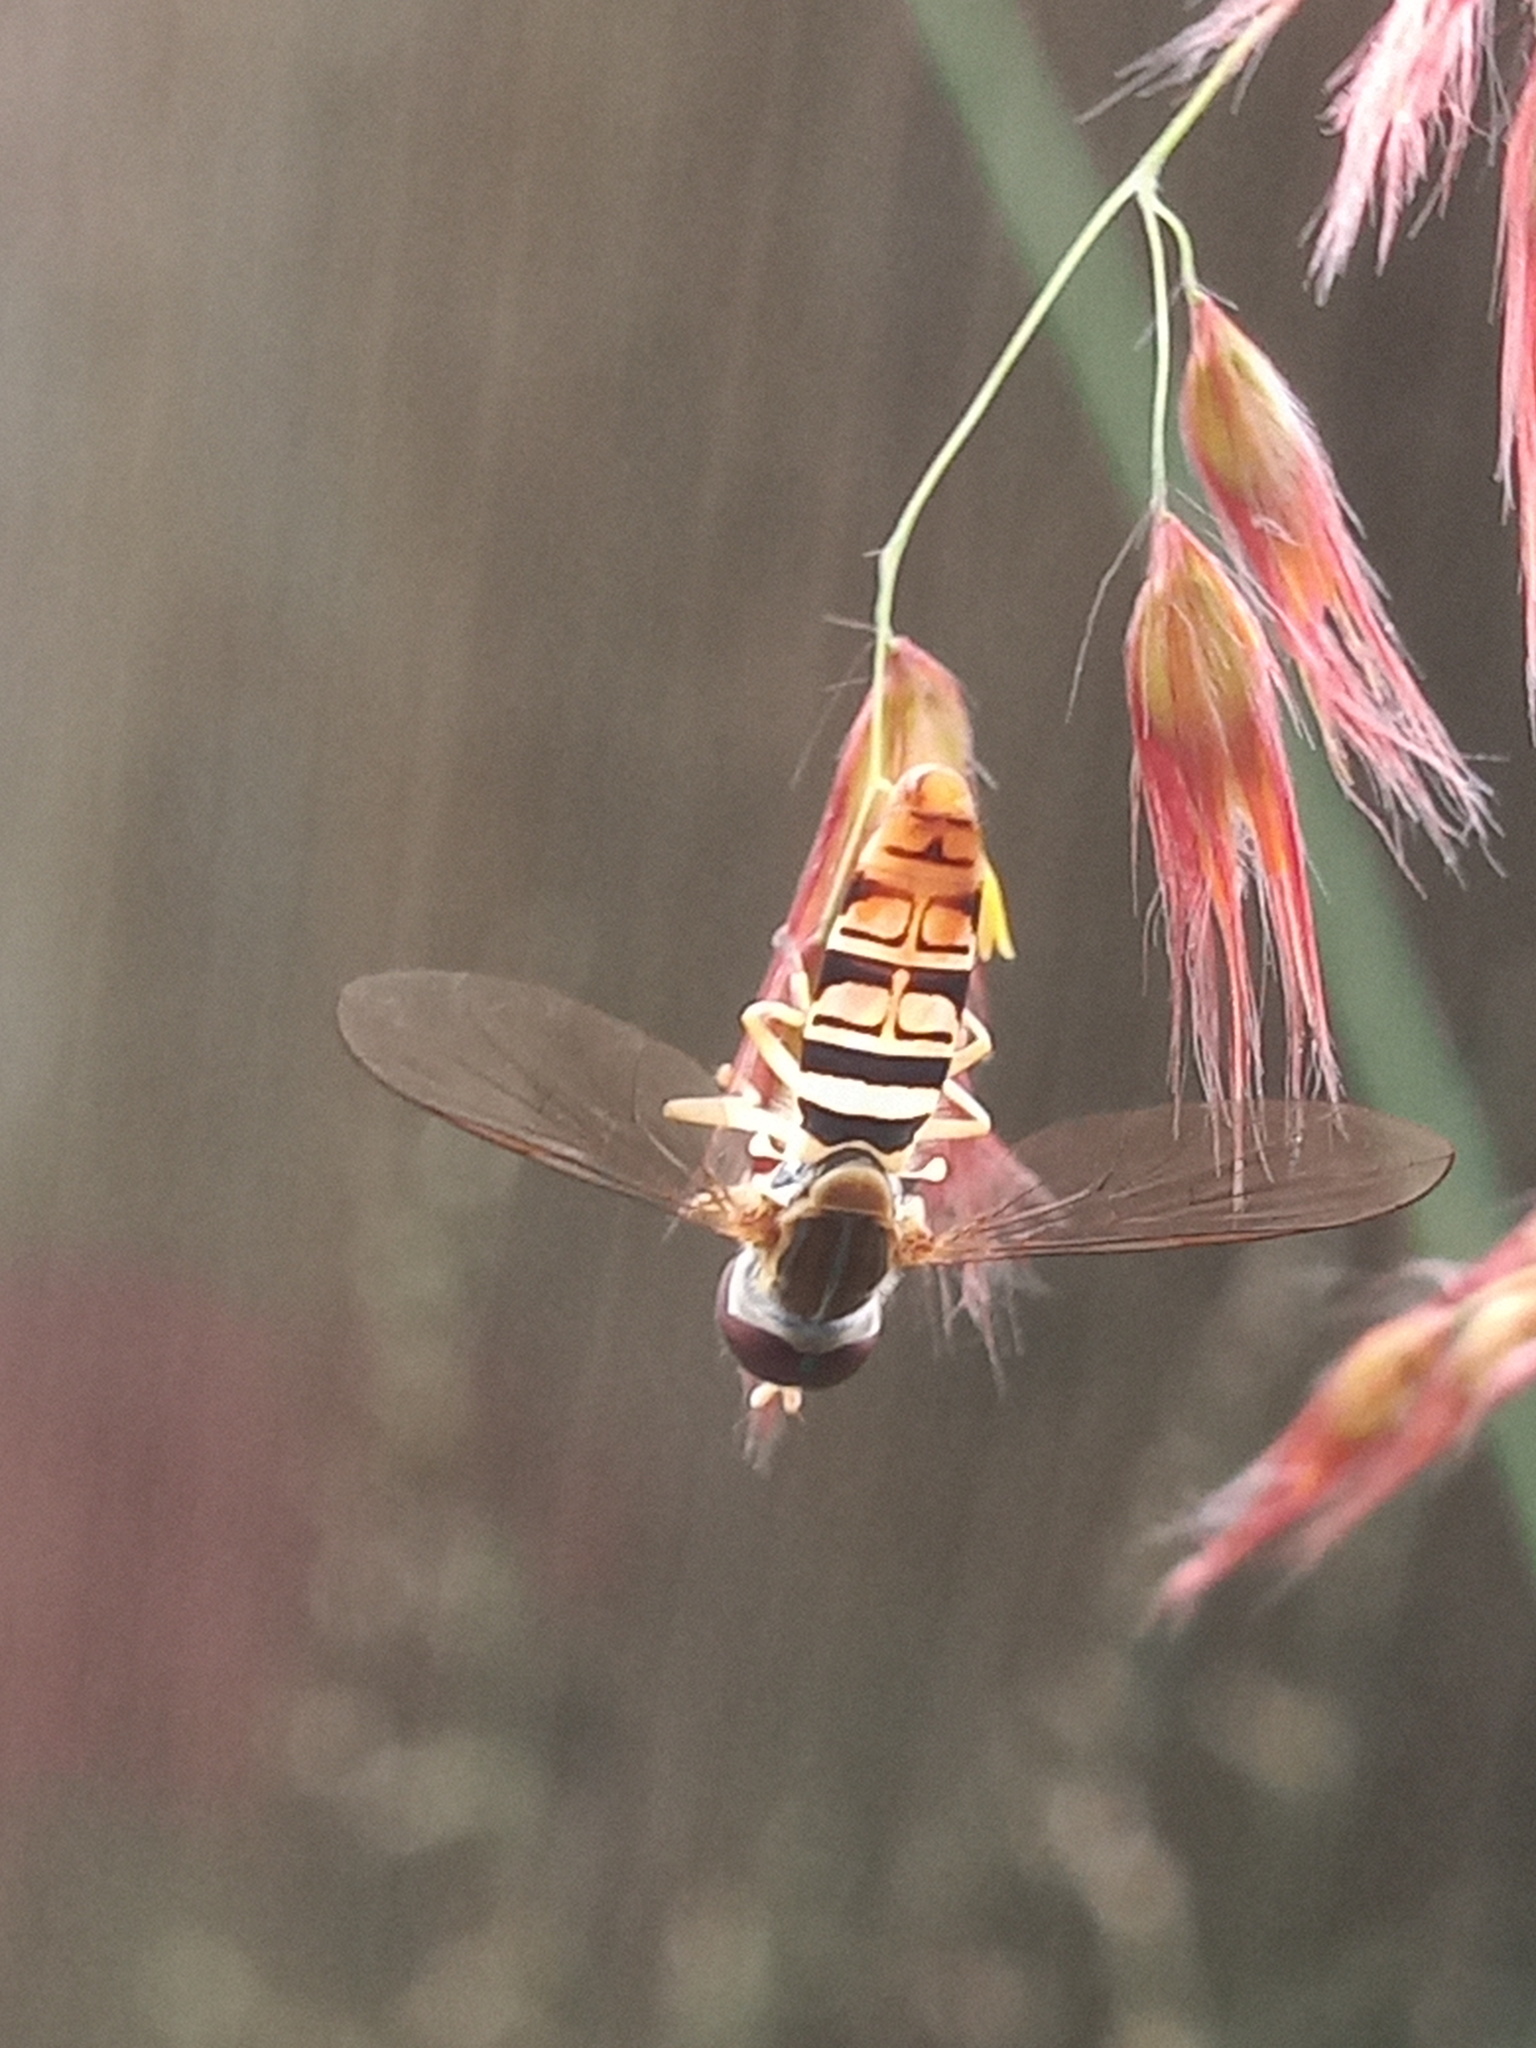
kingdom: Animalia
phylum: Arthropoda
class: Insecta
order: Diptera
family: Syrphidae
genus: Toxomerus
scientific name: Toxomerus politus
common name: Maize calligrapher
